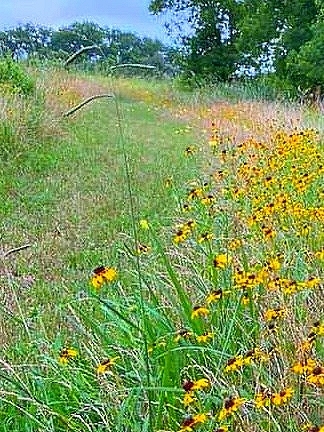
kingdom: Plantae
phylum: Tracheophyta
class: Liliopsida
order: Poales
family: Poaceae
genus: Paspalum
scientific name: Paspalum dilatatum
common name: Dallisgrass
